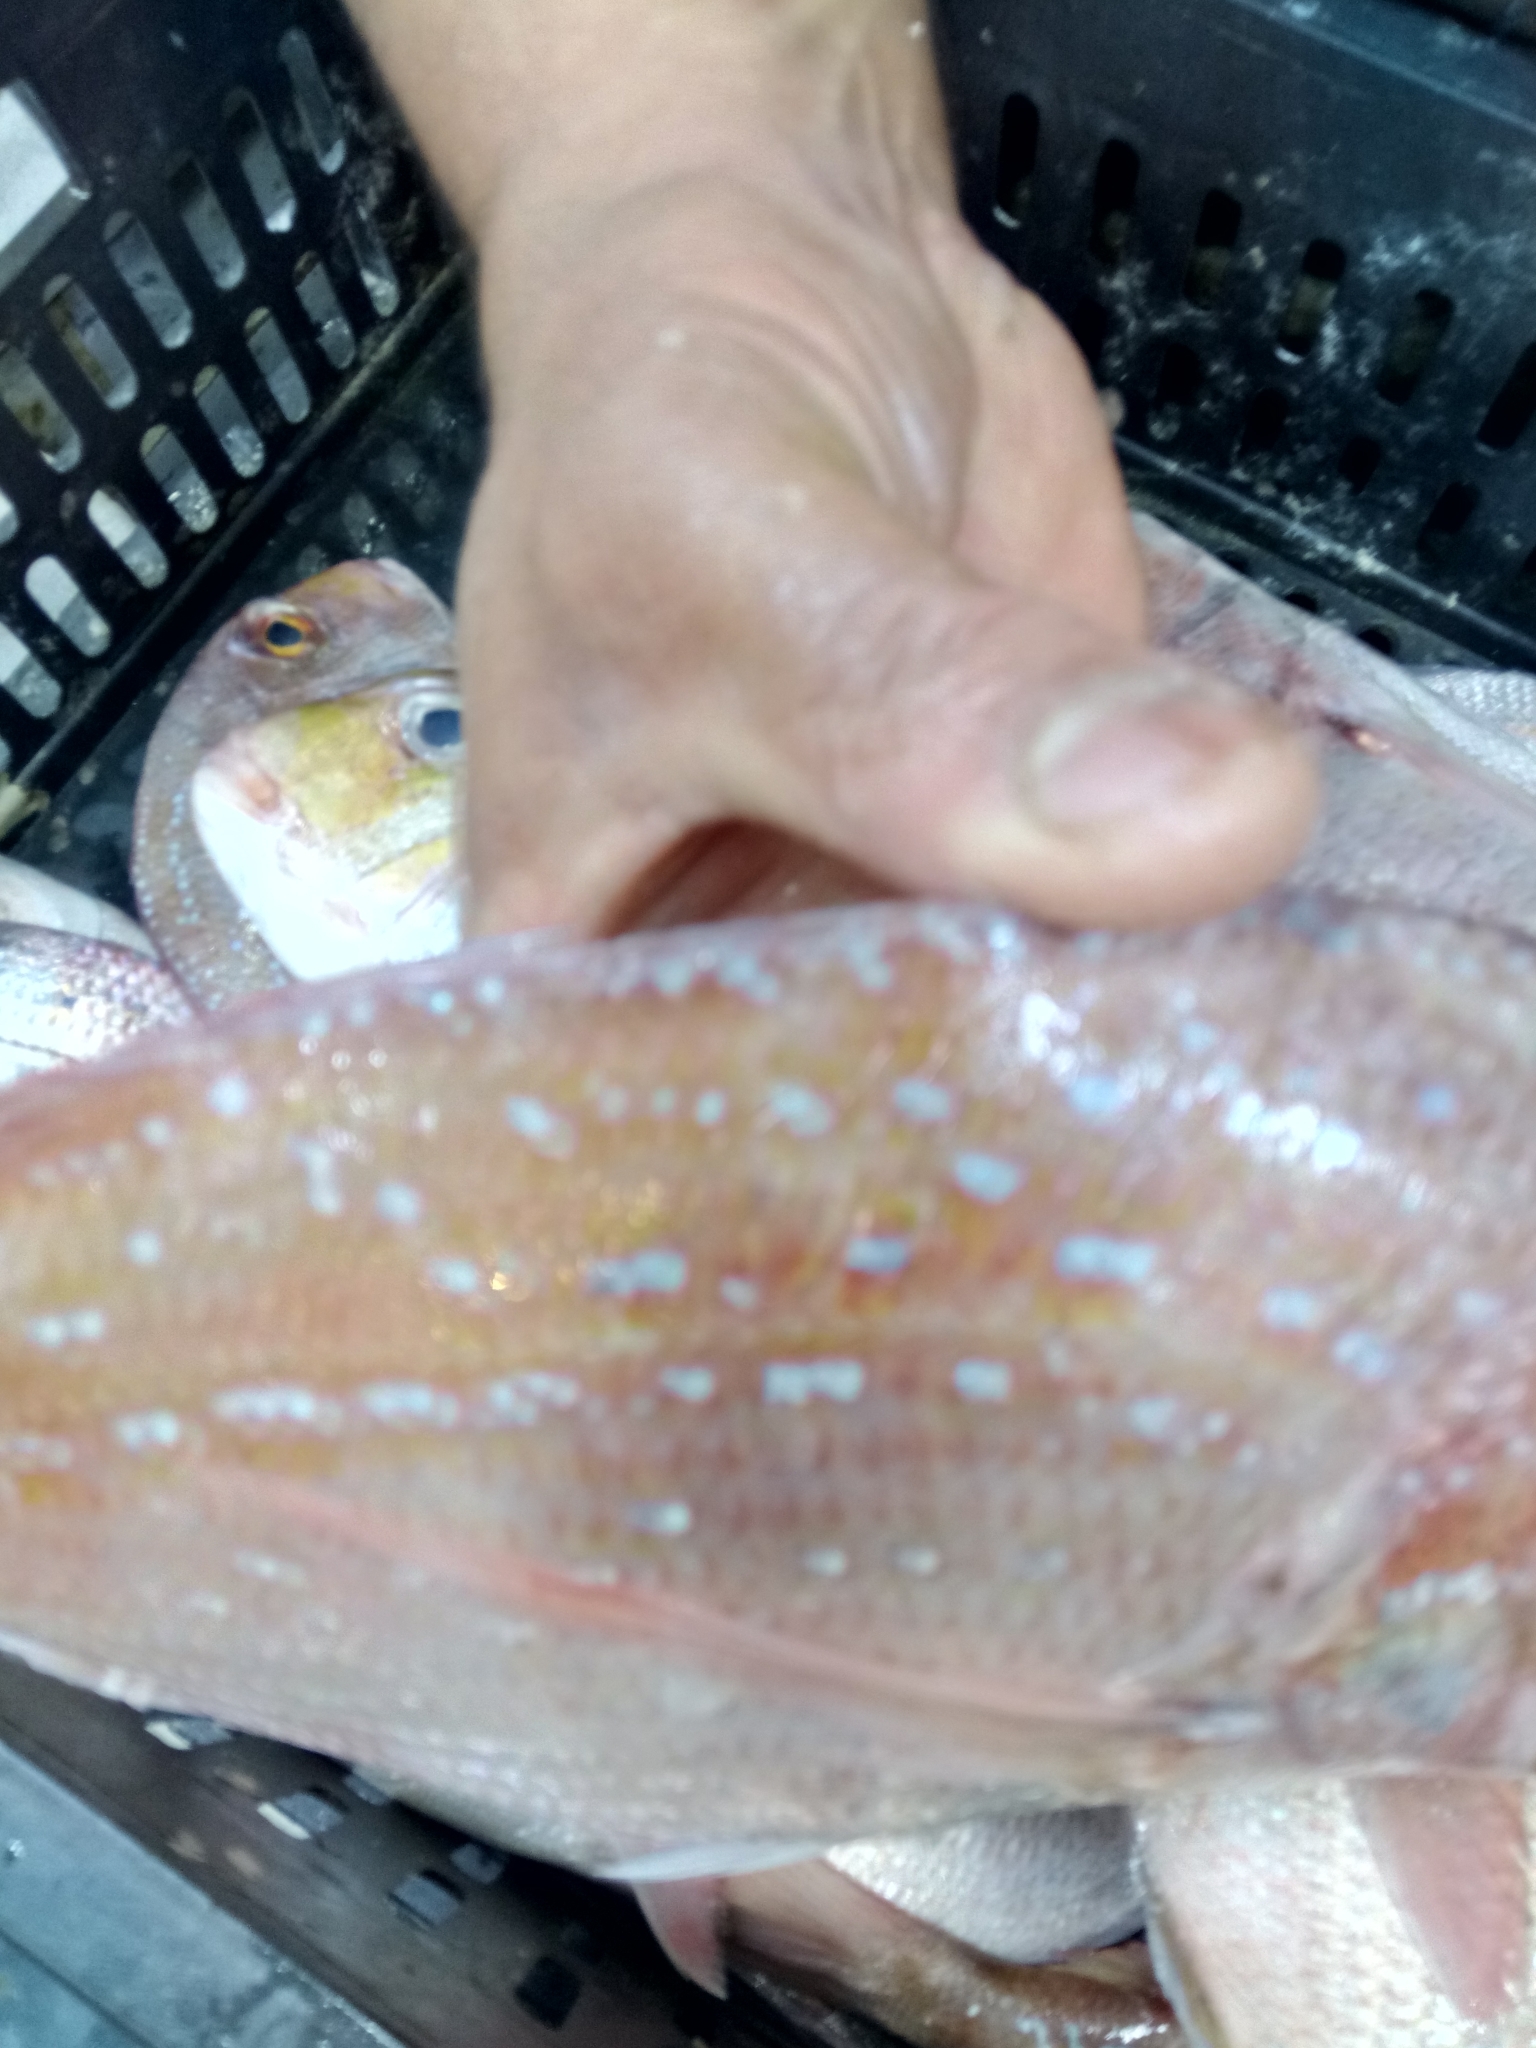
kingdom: Animalia
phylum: Chordata
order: Perciformes
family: Sparidae
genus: Pagrus
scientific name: Pagrus caeruleostictus
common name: Bluespotted seabream
